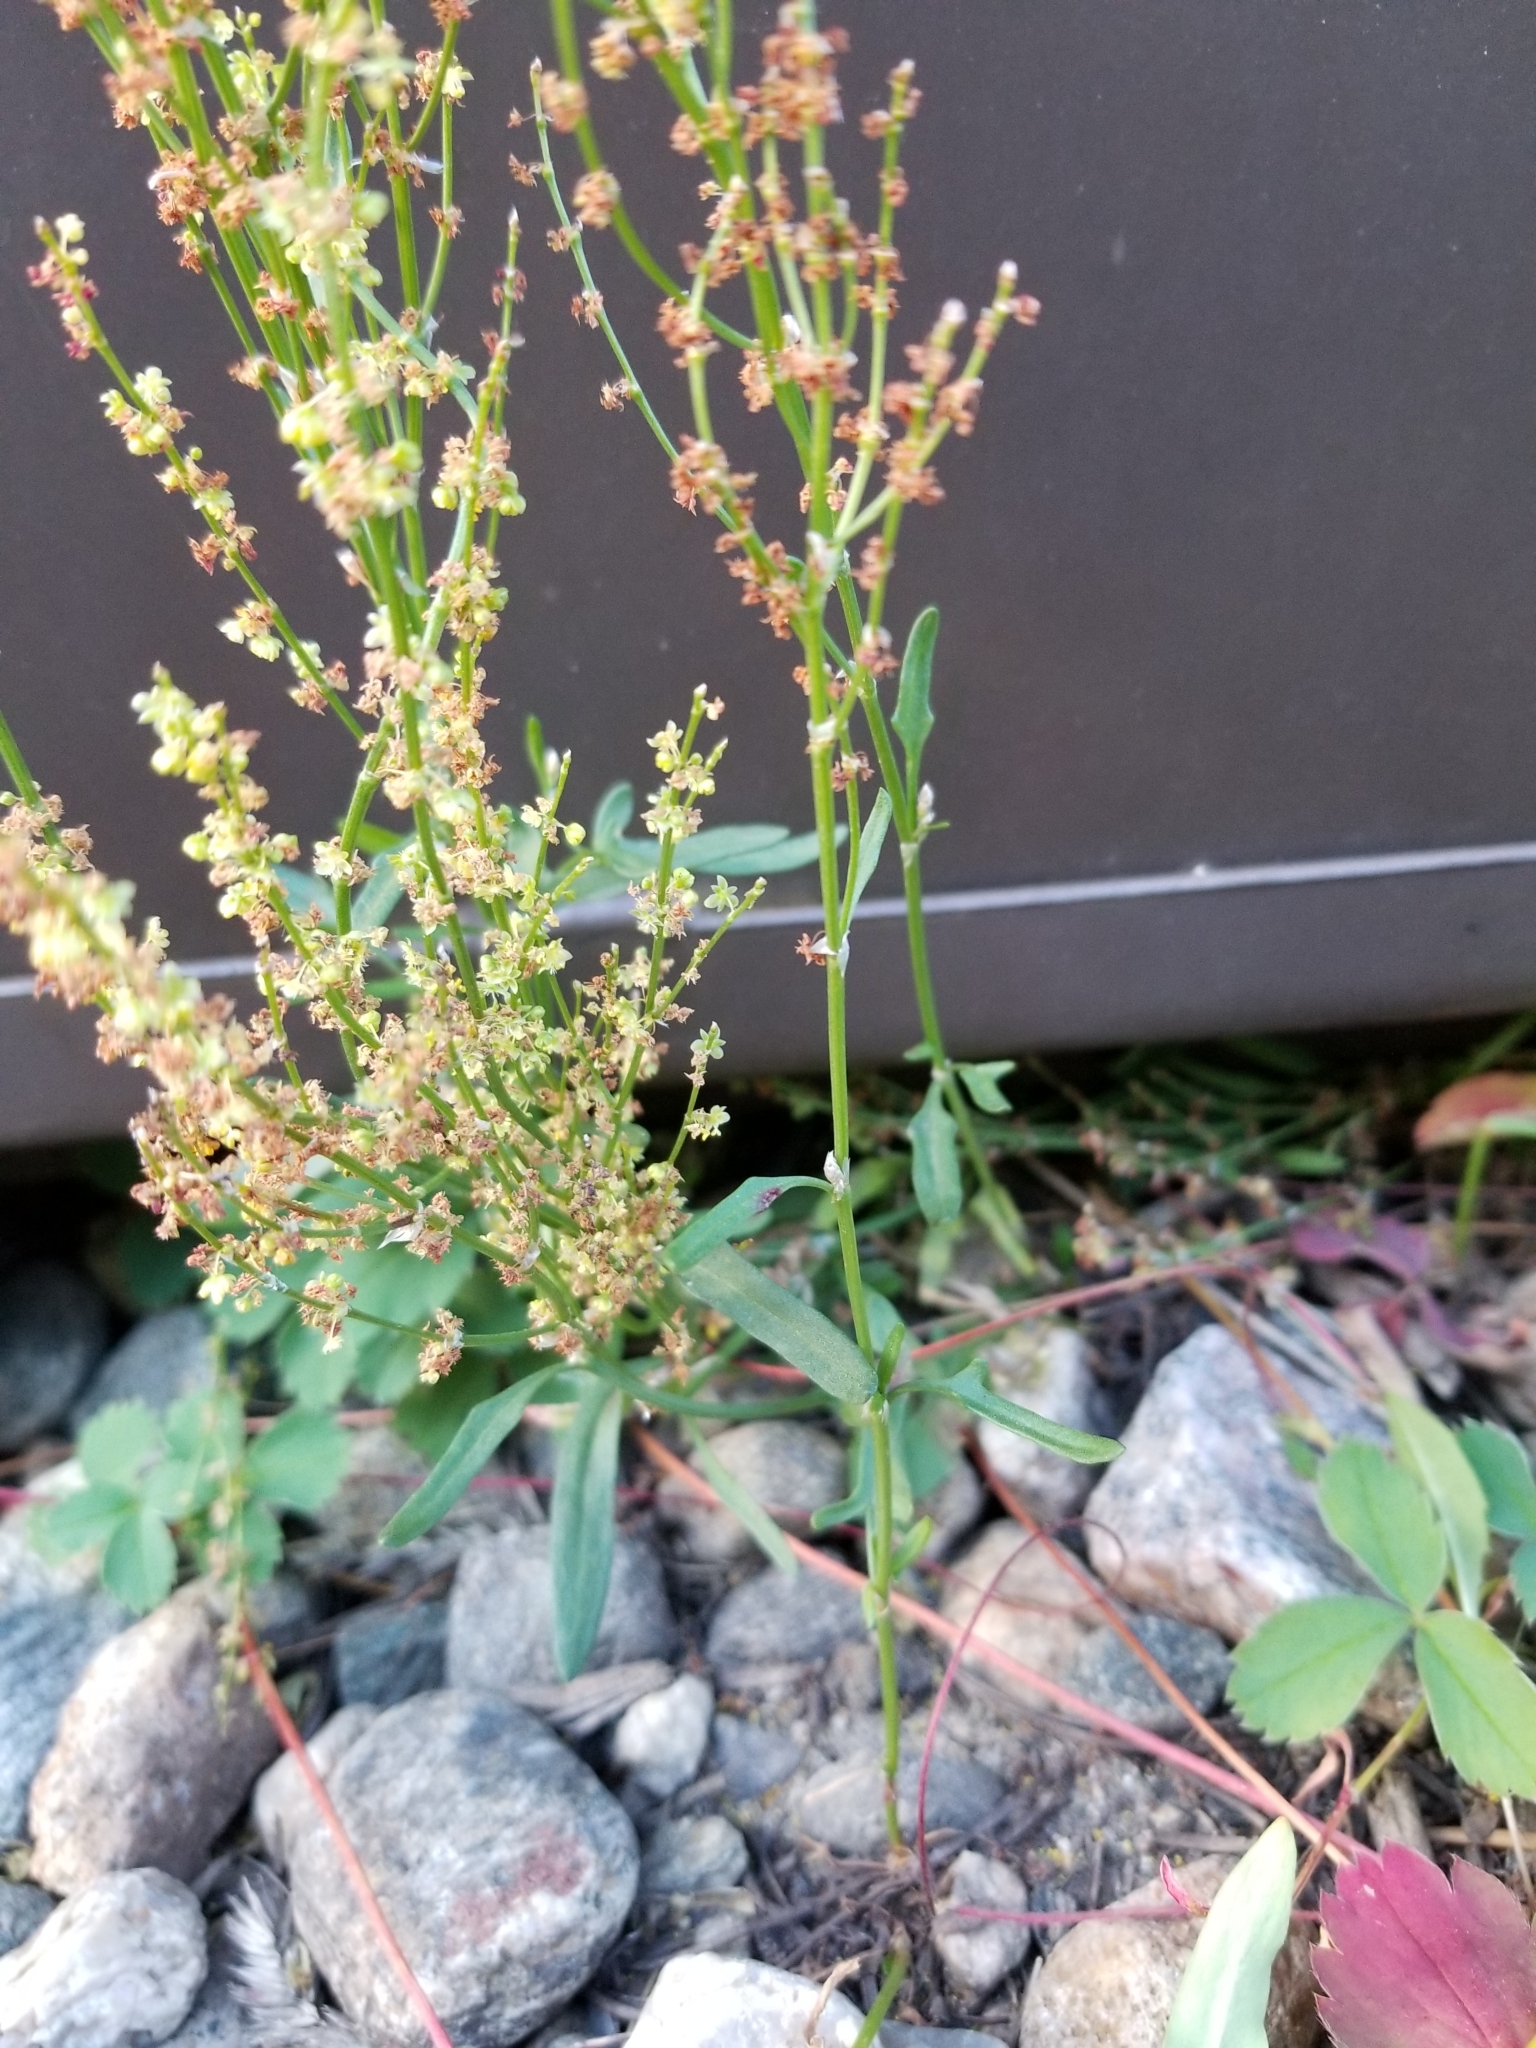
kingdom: Plantae
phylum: Tracheophyta
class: Magnoliopsida
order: Caryophyllales
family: Polygonaceae
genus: Rumex
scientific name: Rumex acetosella
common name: Common sheep sorrel
